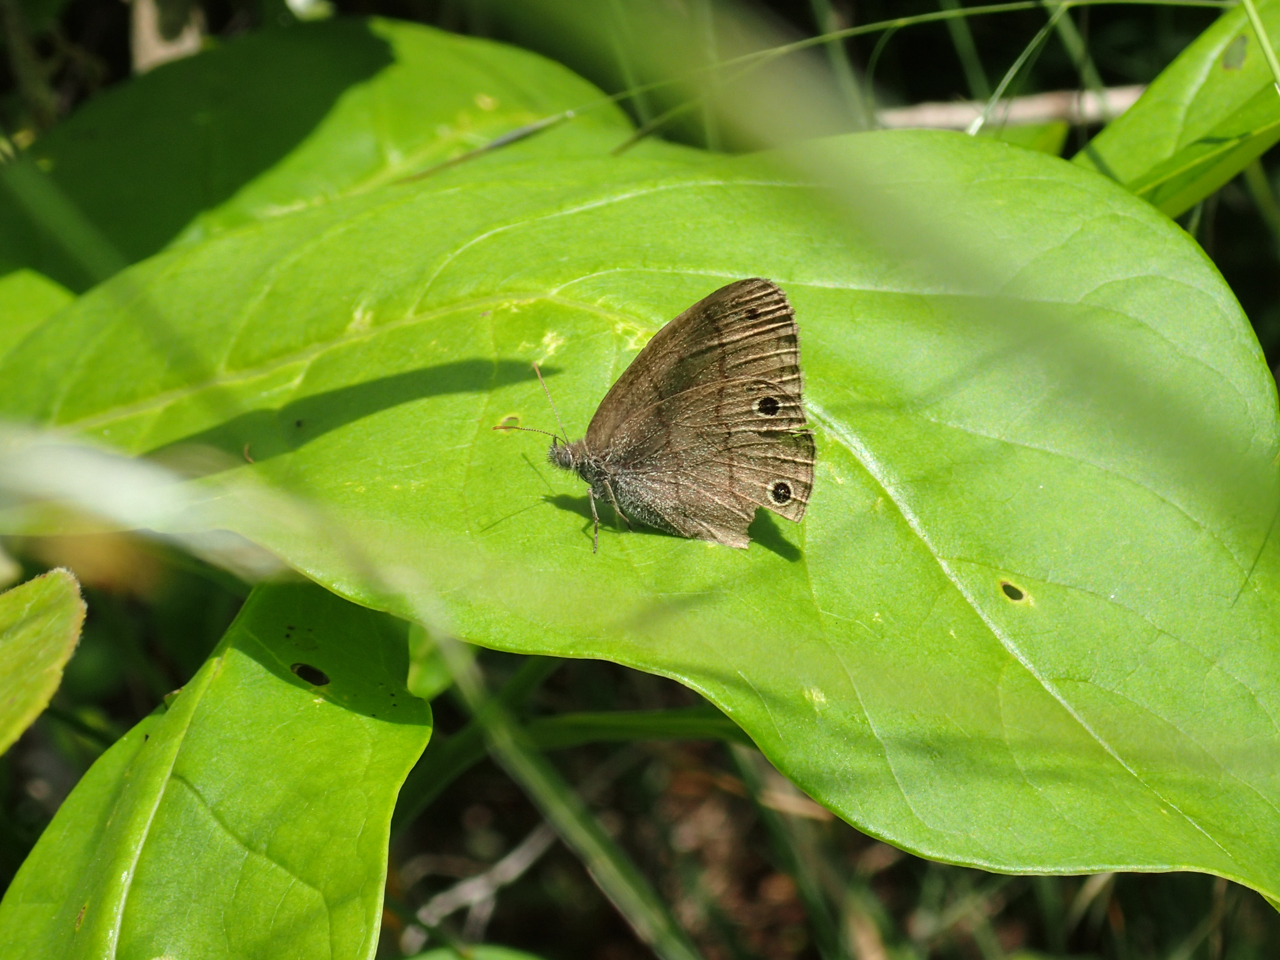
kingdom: Animalia
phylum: Arthropoda
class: Insecta
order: Lepidoptera
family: Nymphalidae
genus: Hermeuptychia
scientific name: Hermeuptychia hermes
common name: Hermes satyr
